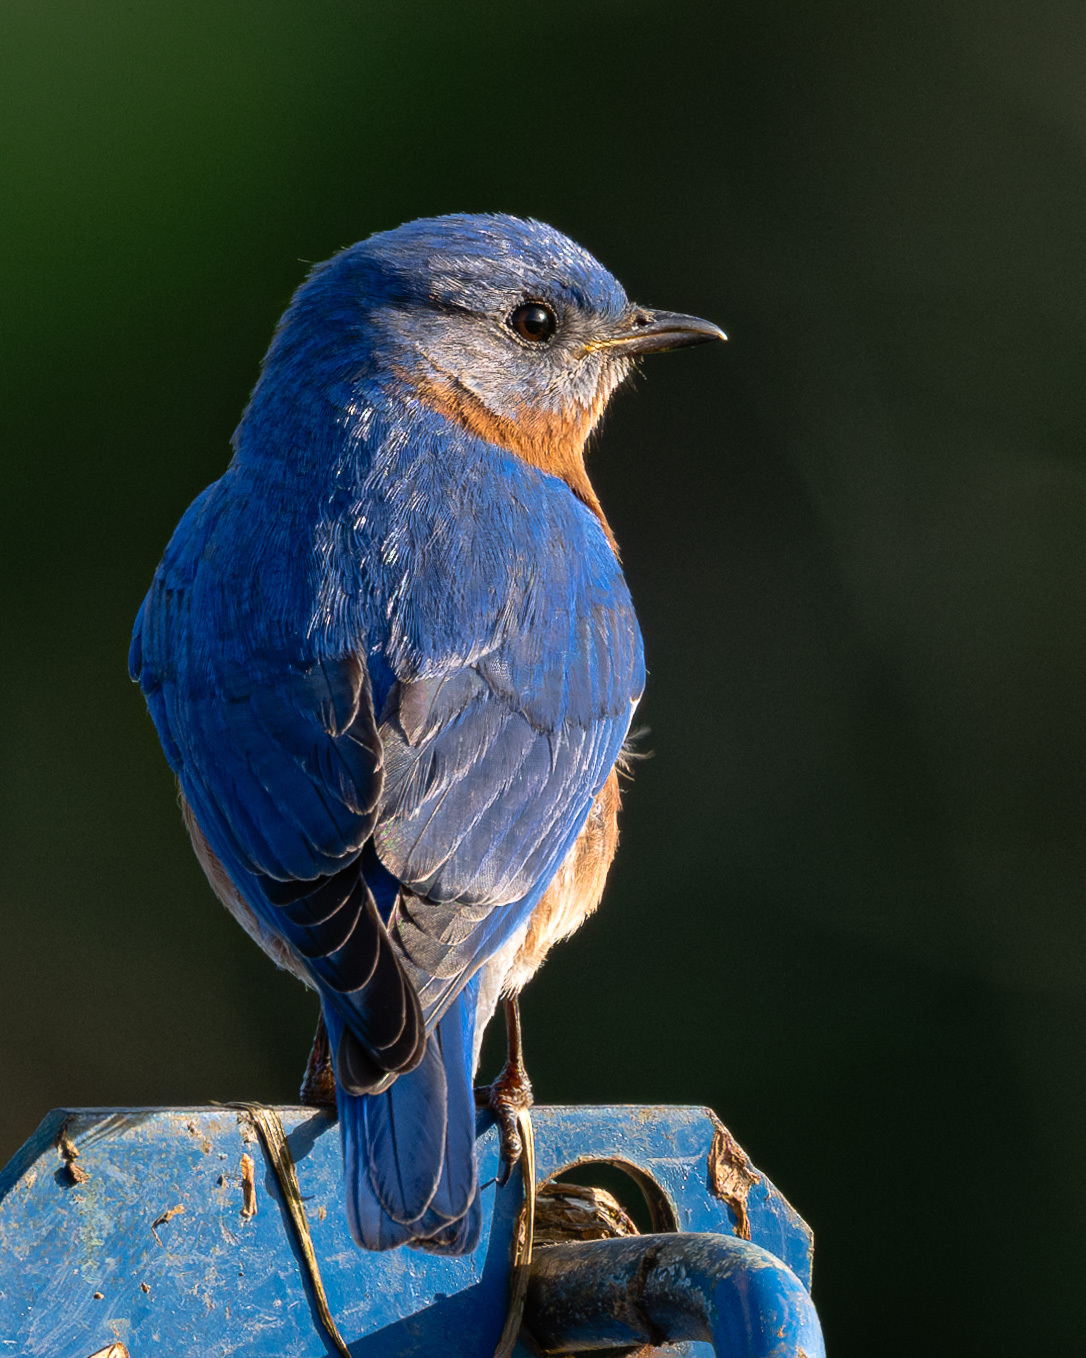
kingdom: Animalia
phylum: Chordata
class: Aves
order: Passeriformes
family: Turdidae
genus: Sialia
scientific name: Sialia sialis
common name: Eastern bluebird
